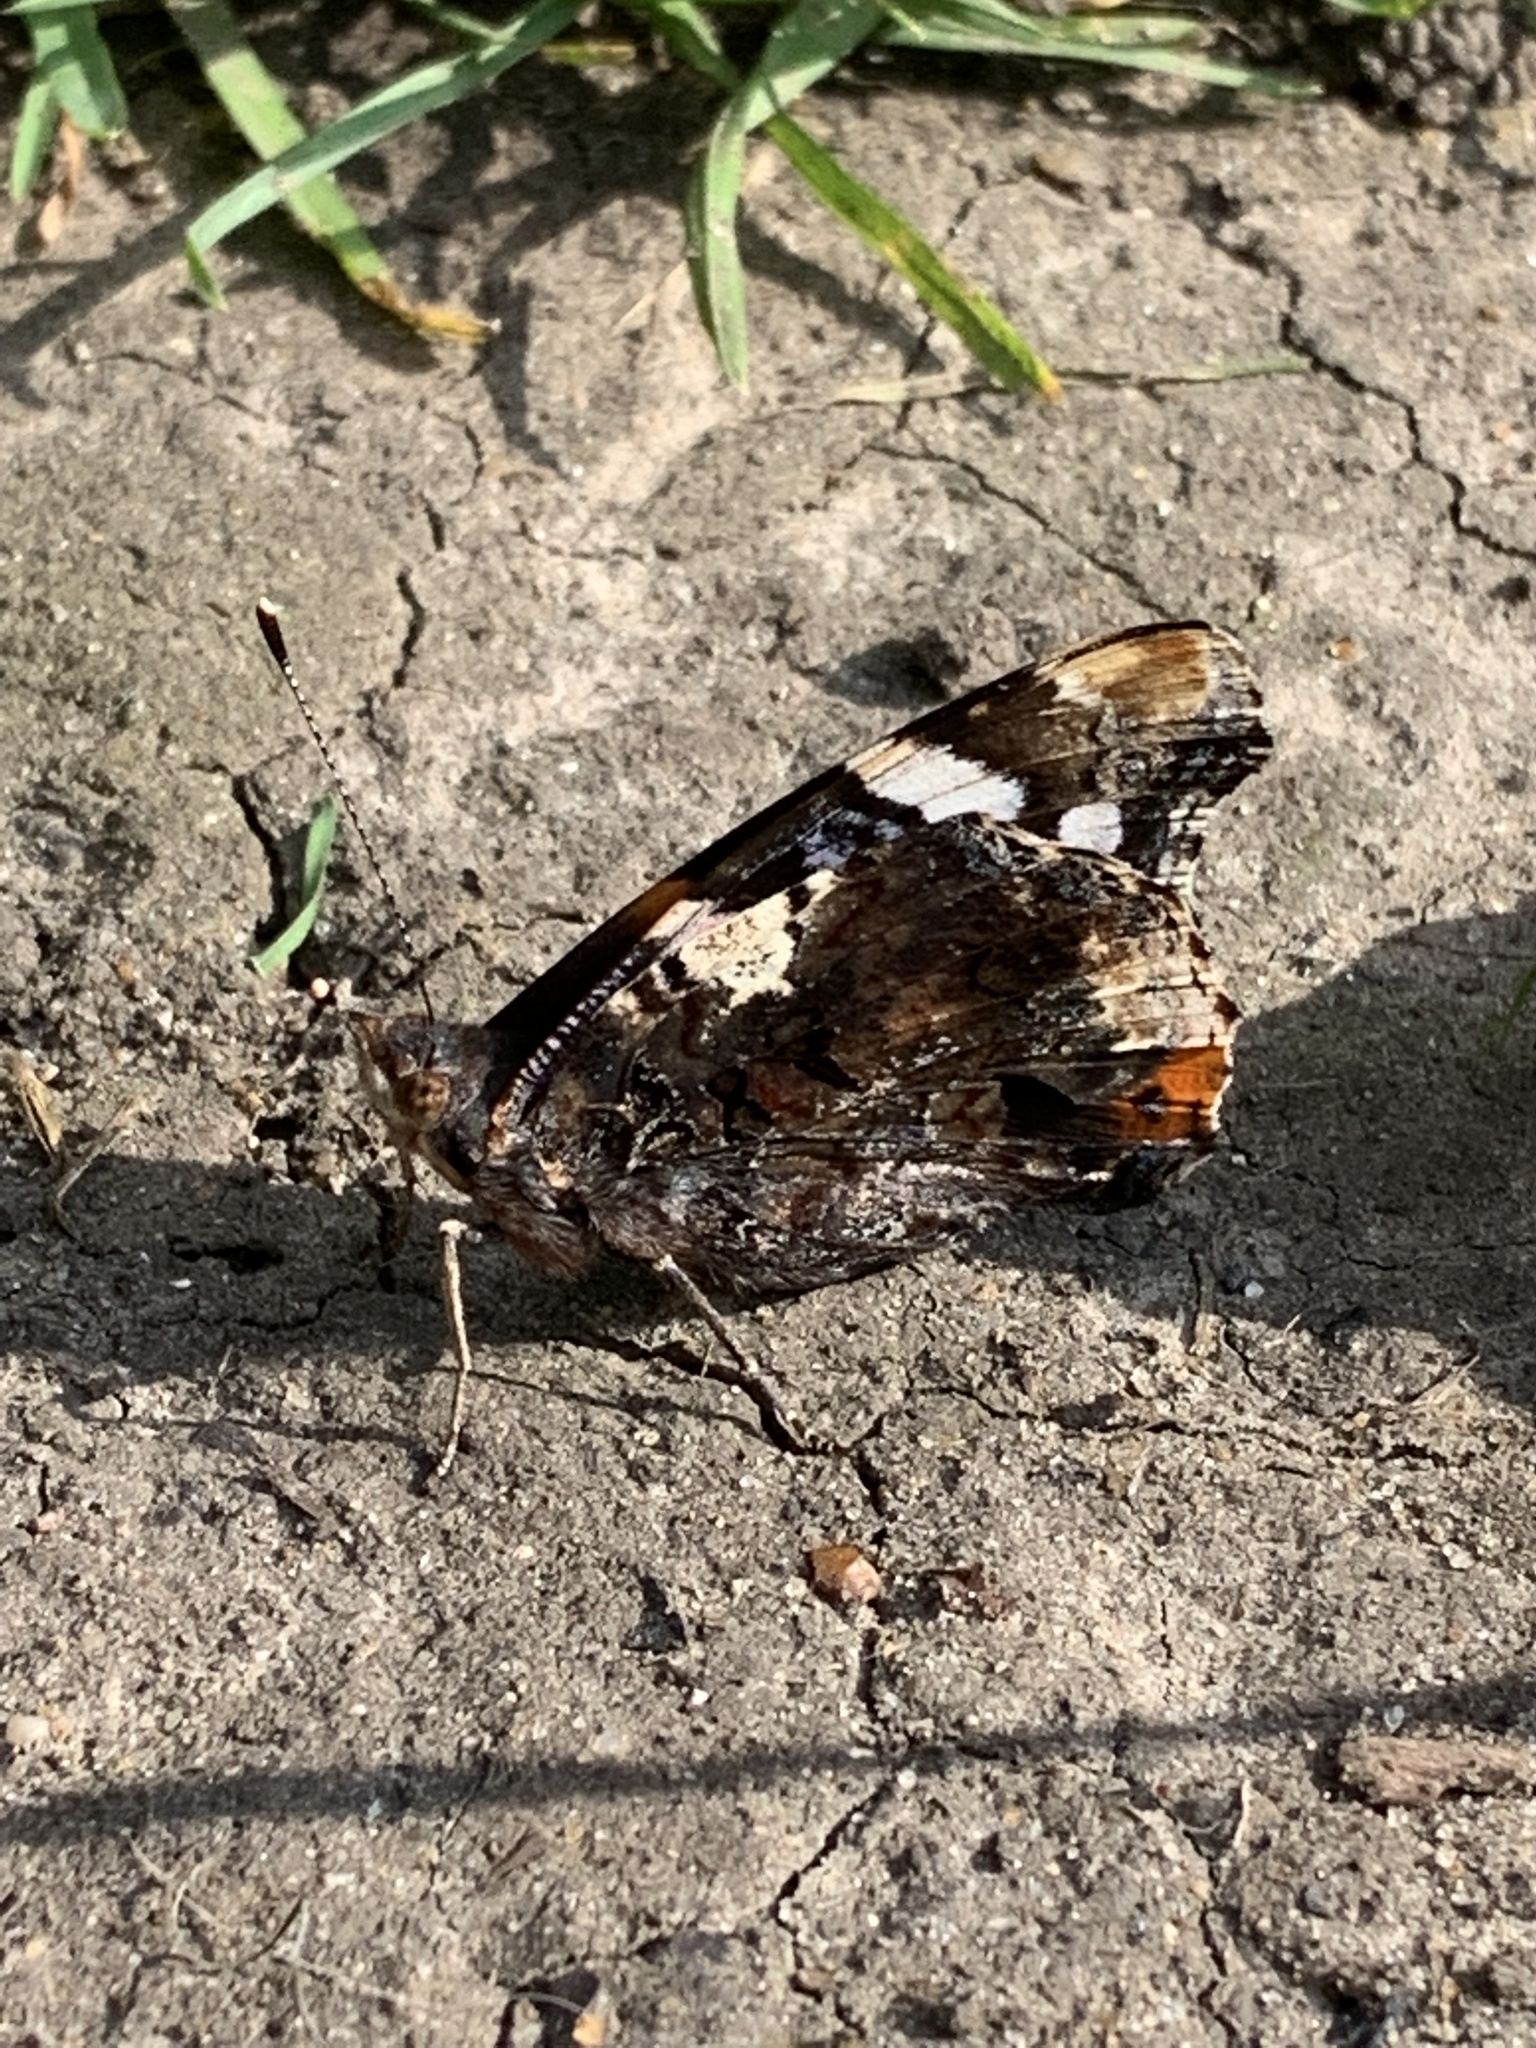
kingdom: Animalia
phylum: Arthropoda
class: Insecta
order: Lepidoptera
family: Nymphalidae
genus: Vanessa
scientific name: Vanessa atalanta
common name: Red admiral
